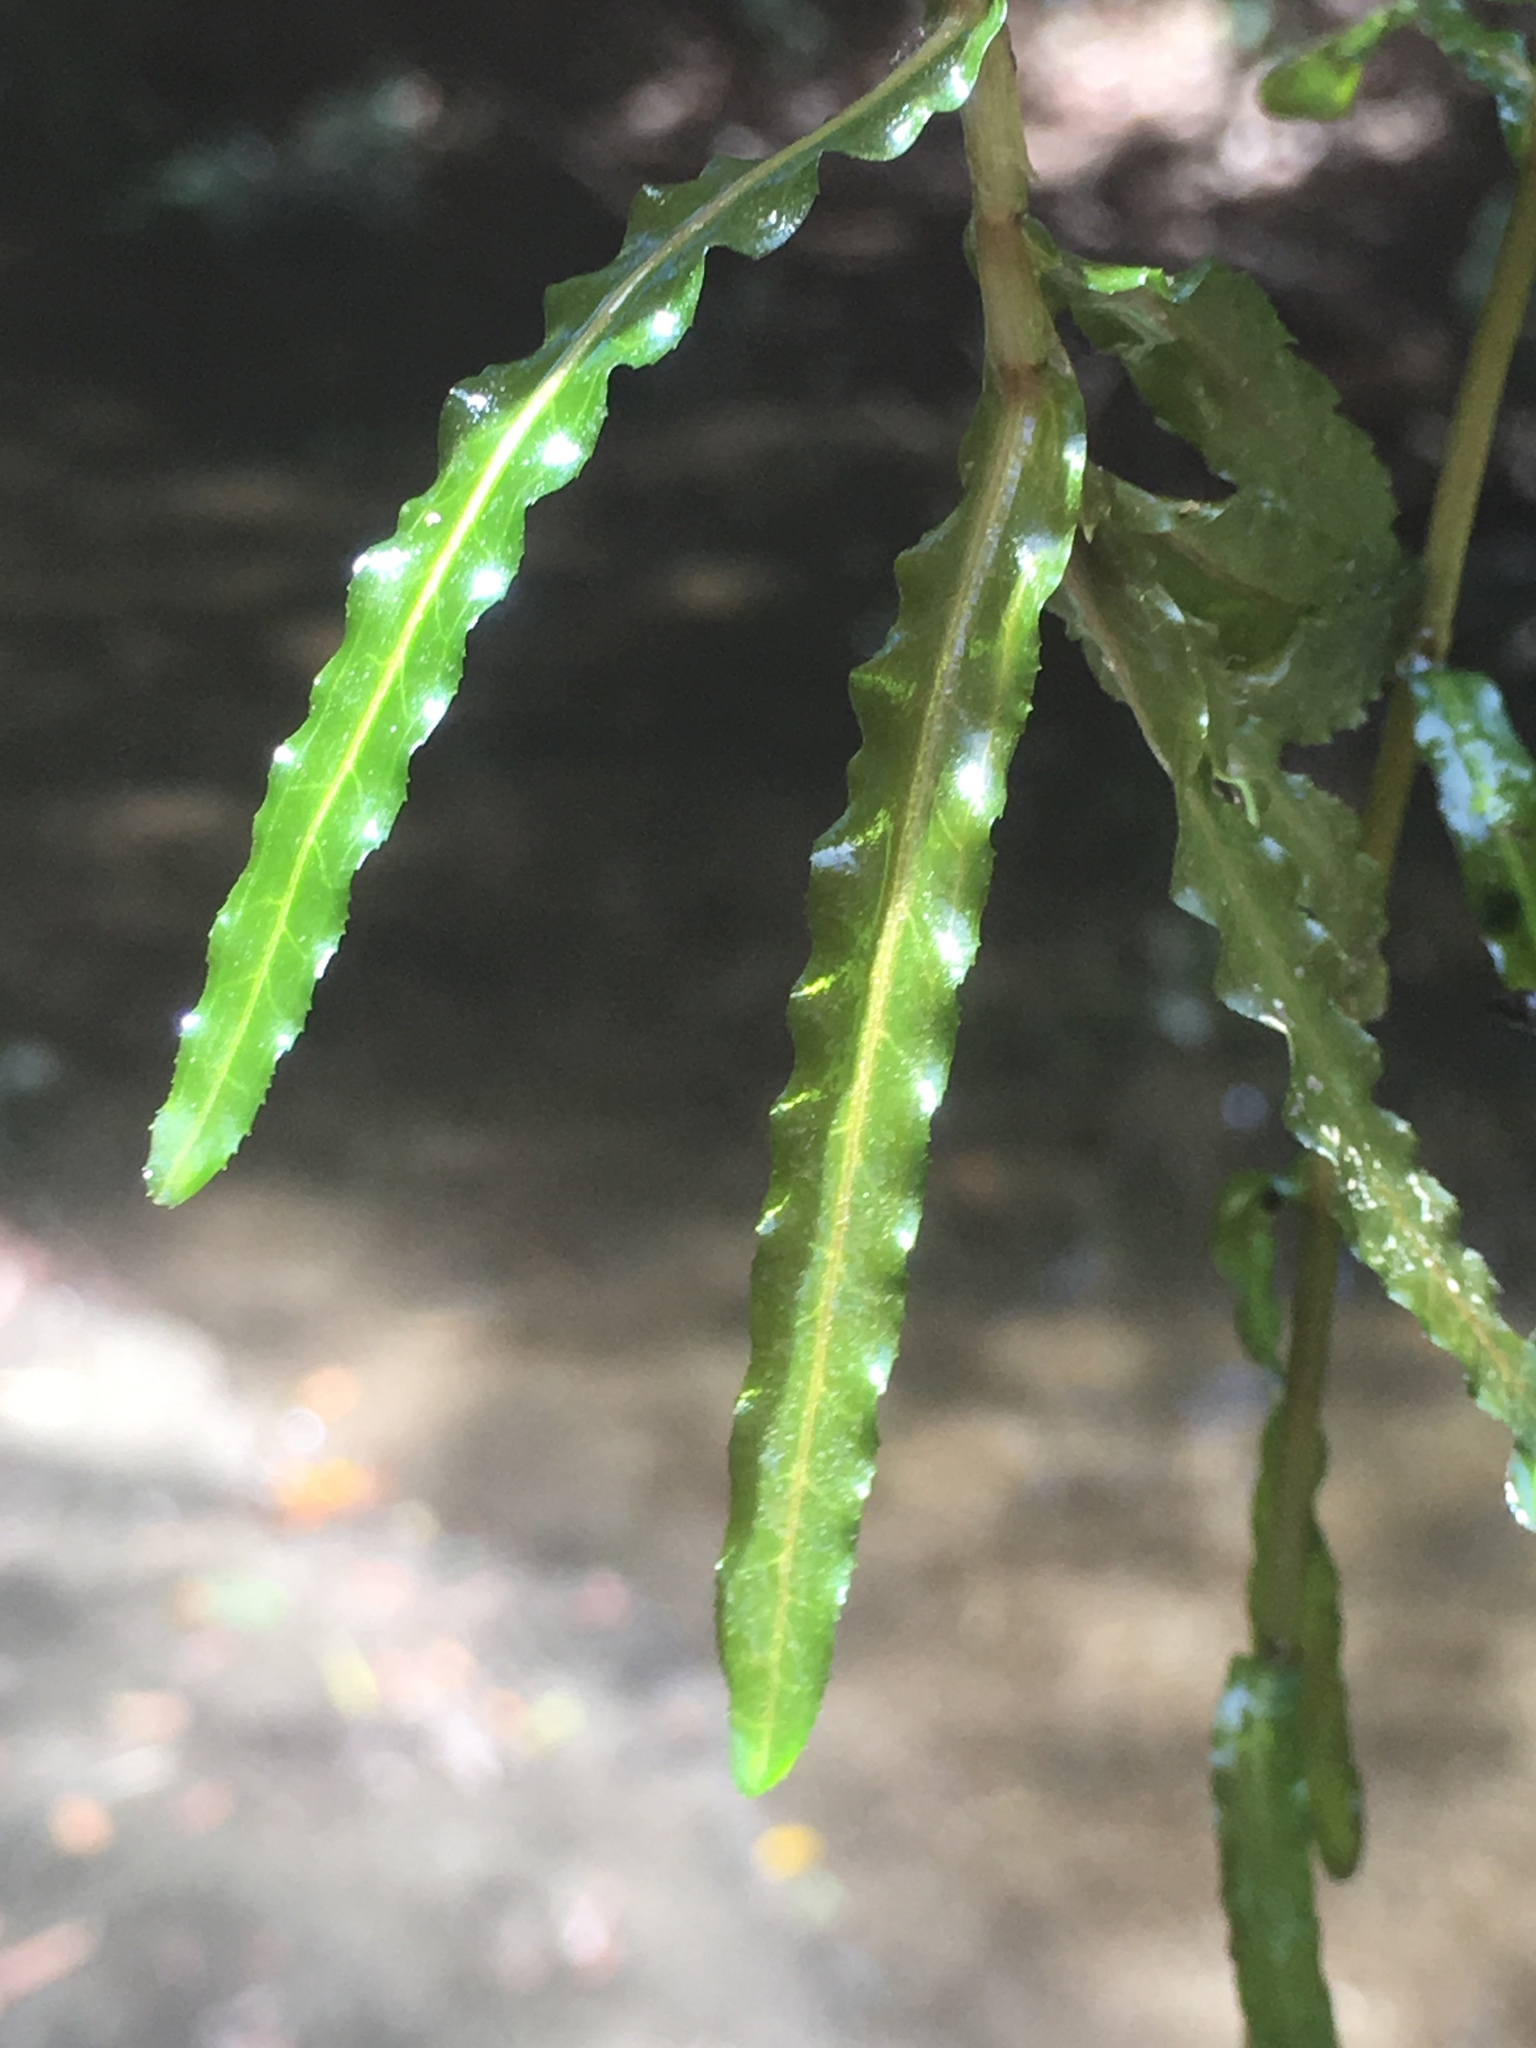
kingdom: Plantae
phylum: Tracheophyta
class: Liliopsida
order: Alismatales
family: Potamogetonaceae
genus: Potamogeton
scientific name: Potamogeton crispus
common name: Curled pondweed
